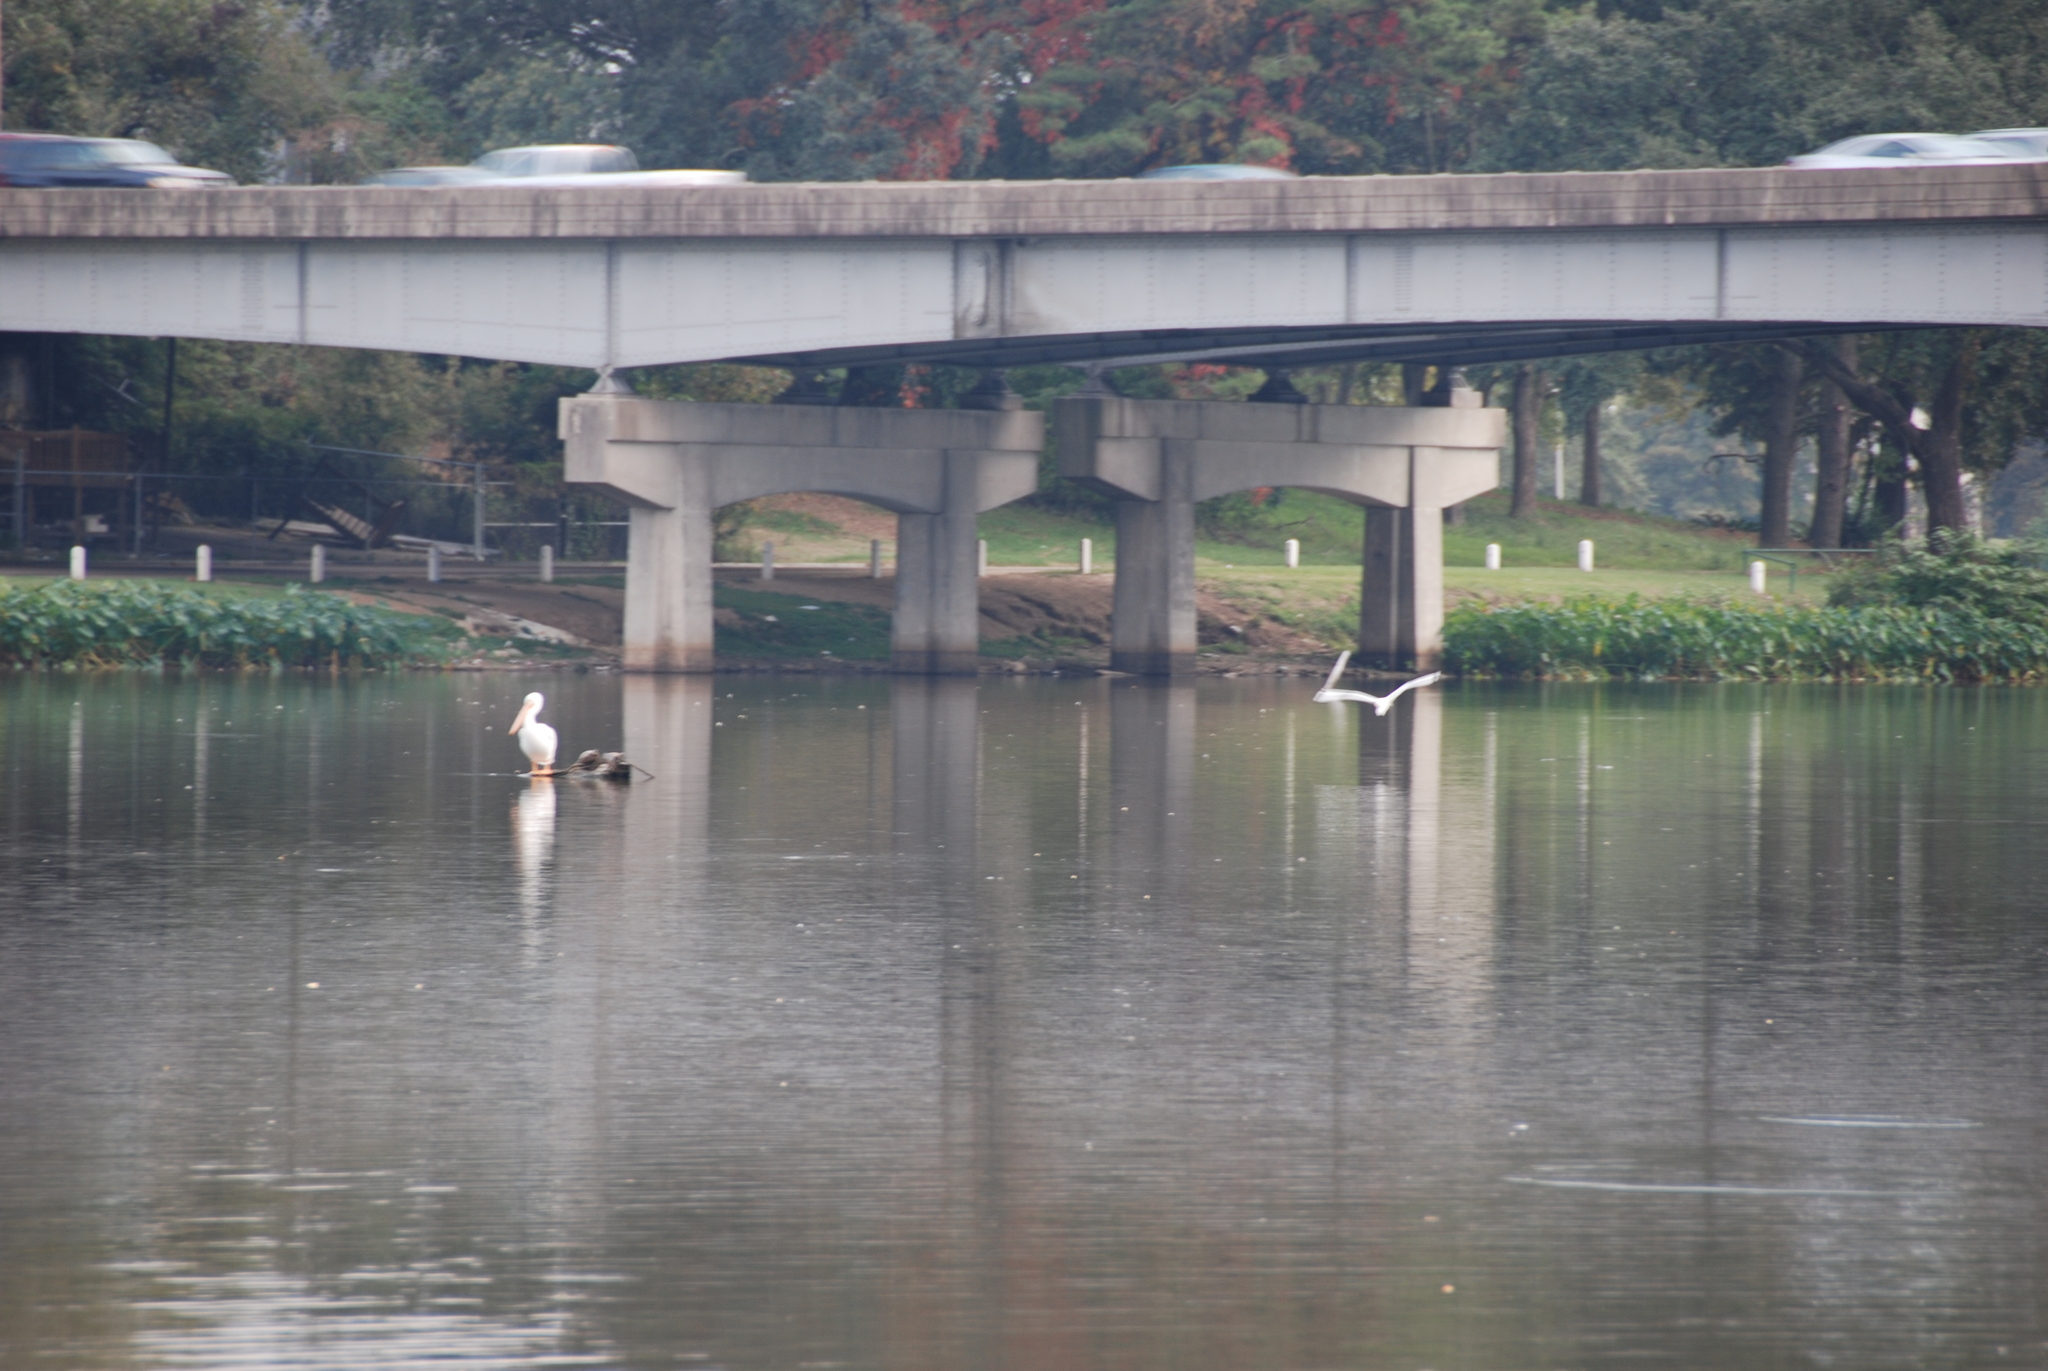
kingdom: Animalia
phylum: Chordata
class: Aves
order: Pelecaniformes
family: Pelecanidae
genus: Pelecanus
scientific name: Pelecanus erythrorhynchos
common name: American white pelican
